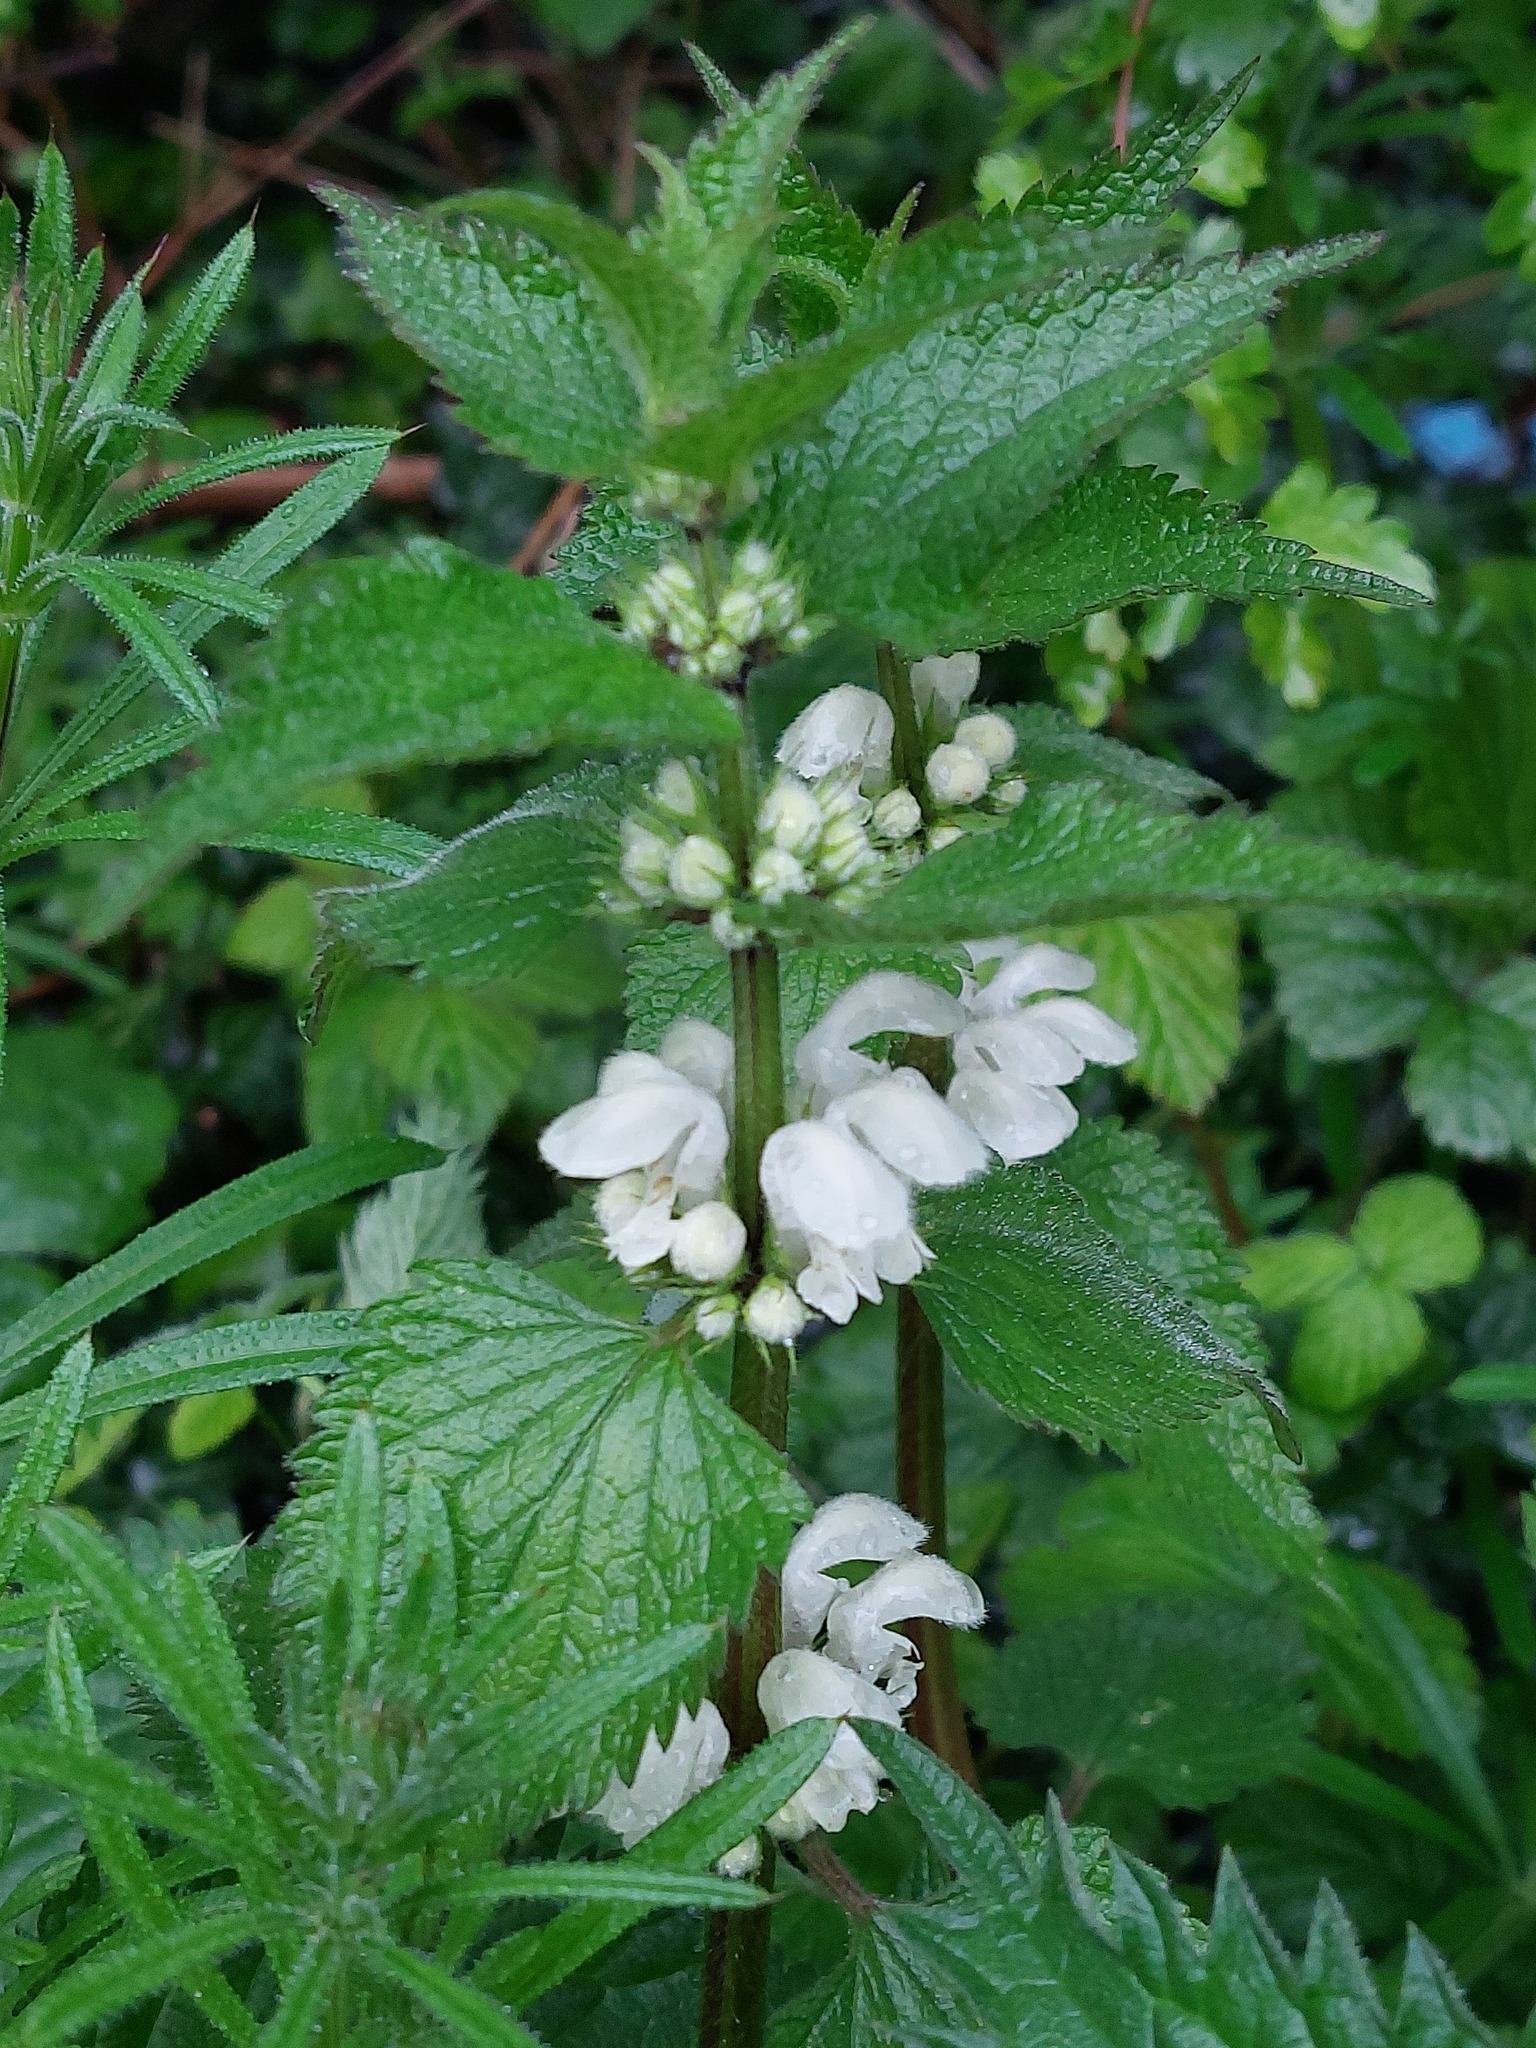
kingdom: Plantae
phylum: Tracheophyta
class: Magnoliopsida
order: Lamiales
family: Lamiaceae
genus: Lamium
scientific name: Lamium album
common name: White dead-nettle
